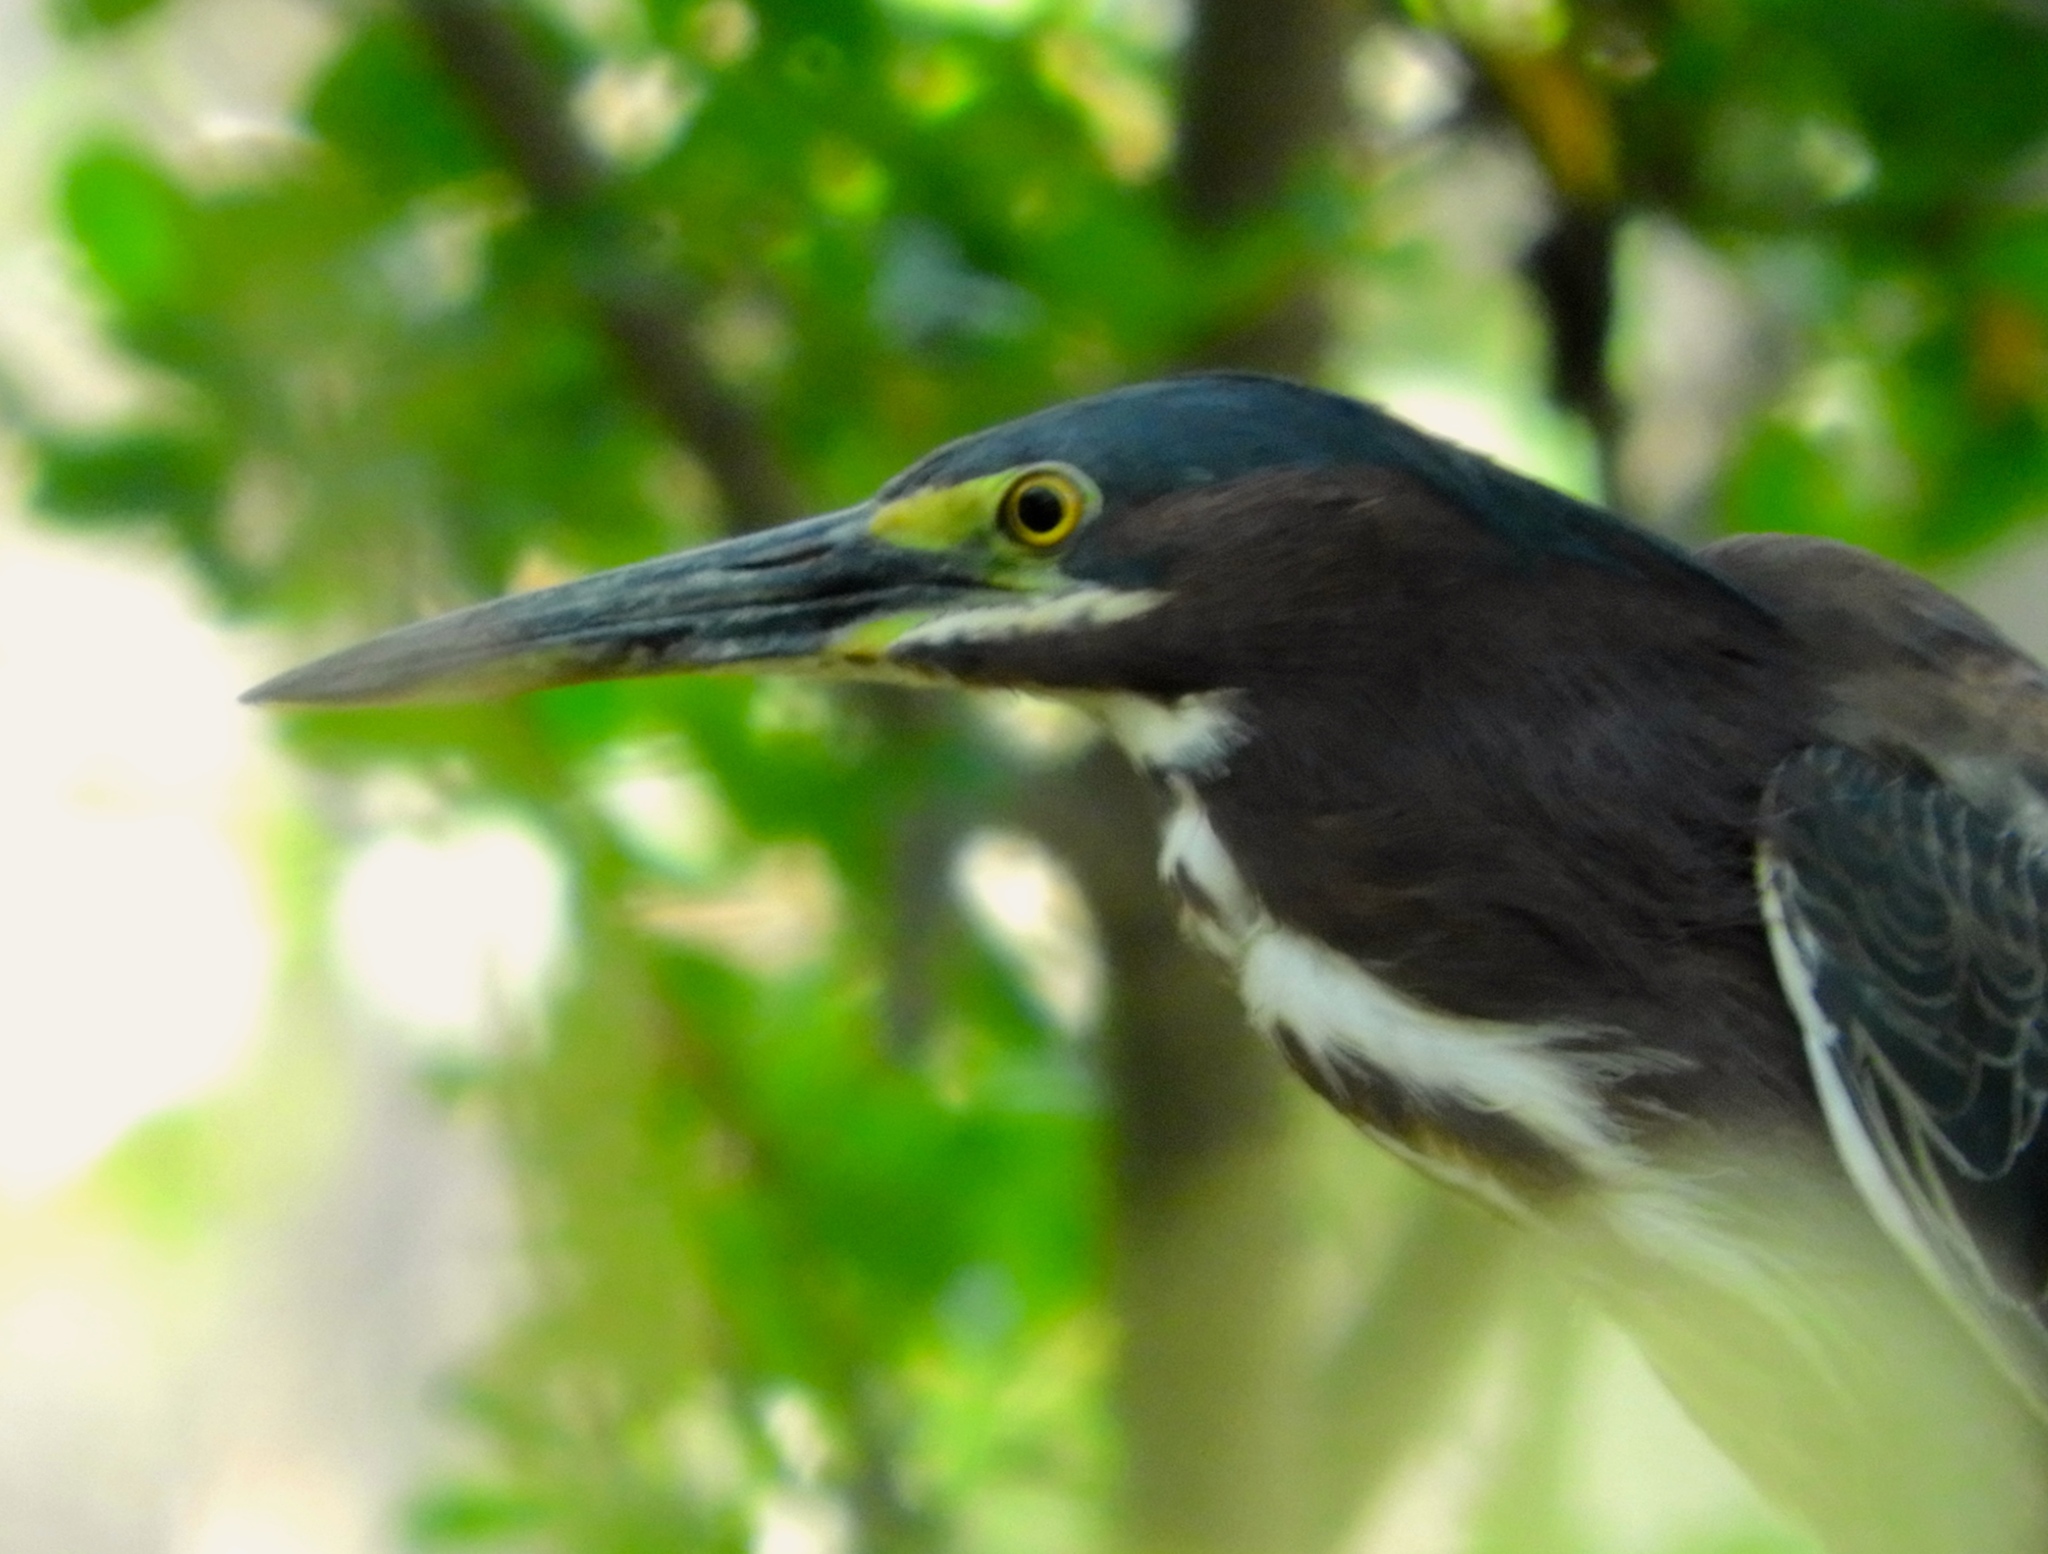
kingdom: Animalia
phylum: Chordata
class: Aves
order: Pelecaniformes
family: Ardeidae
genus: Butorides
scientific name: Butorides virescens
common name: Green heron
